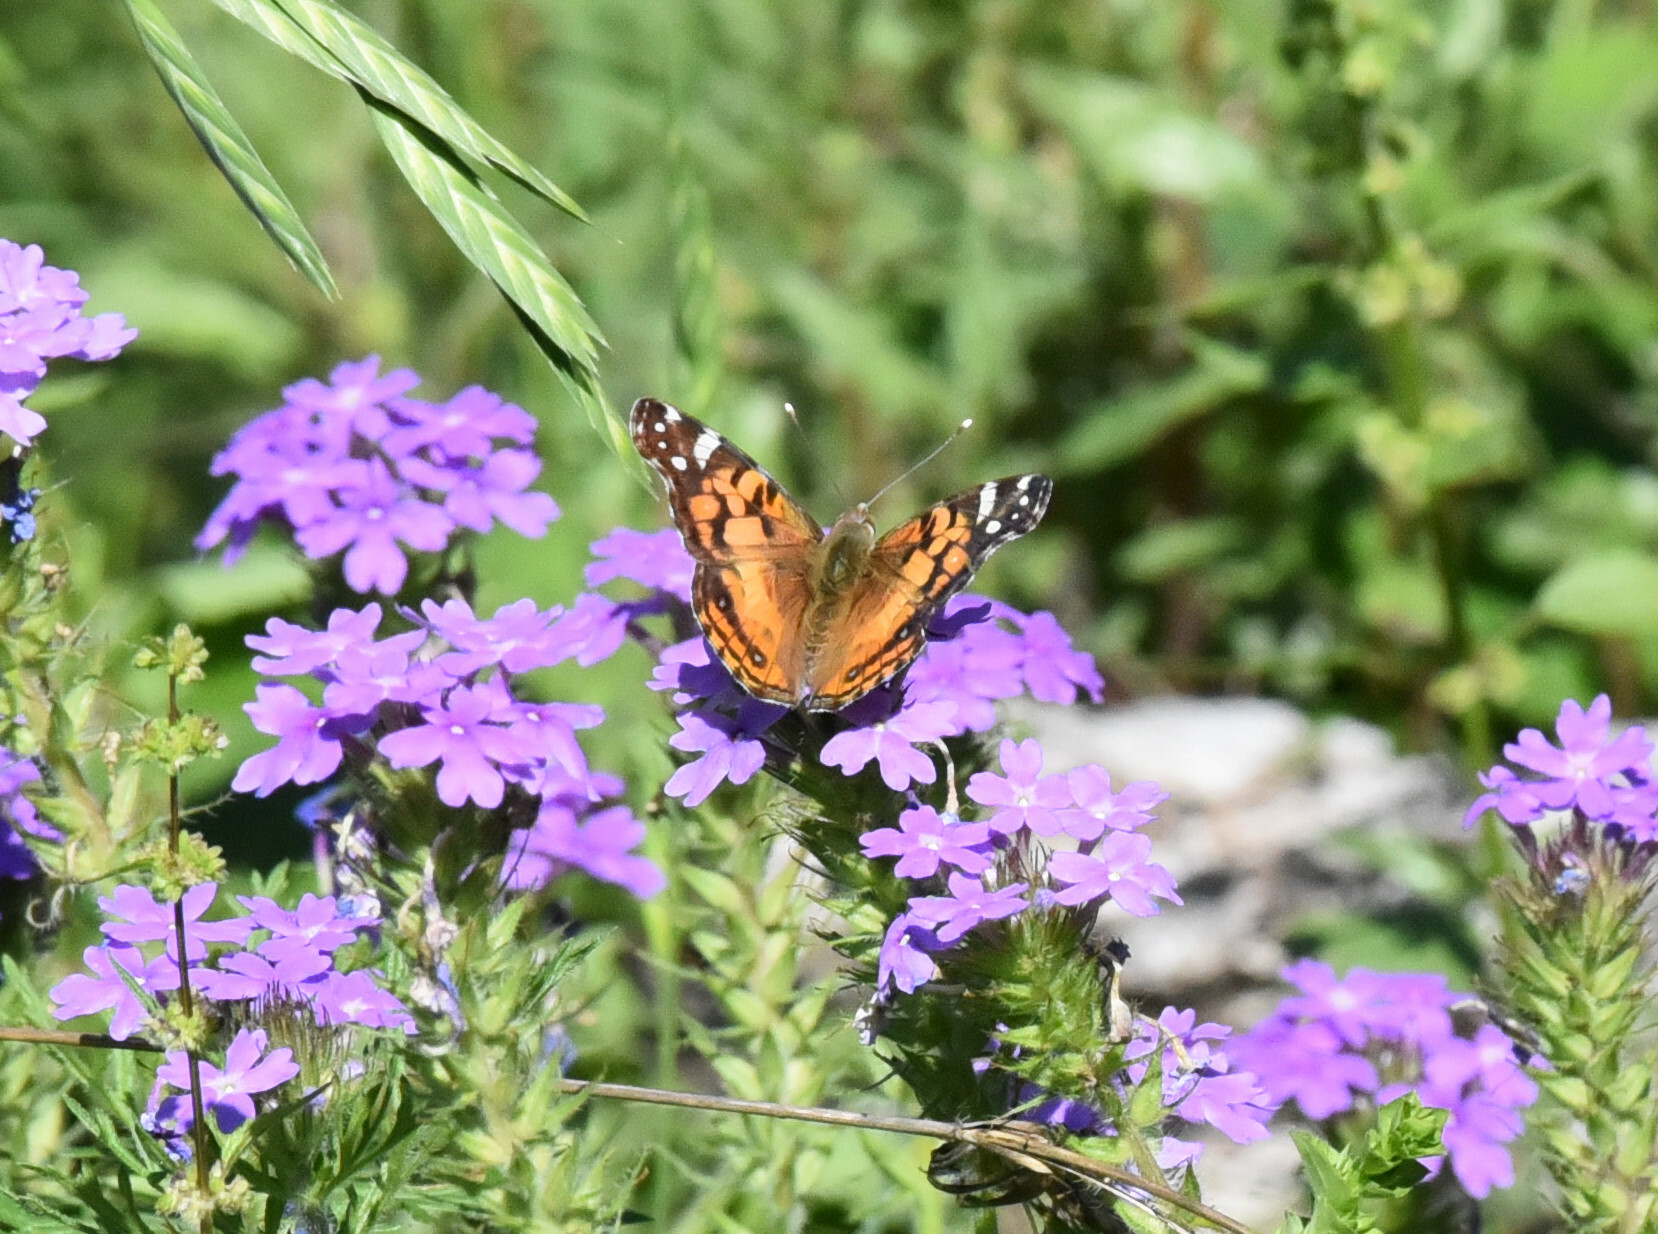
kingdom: Animalia
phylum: Arthropoda
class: Insecta
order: Lepidoptera
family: Nymphalidae
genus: Vanessa
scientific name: Vanessa virginiensis
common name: American lady
